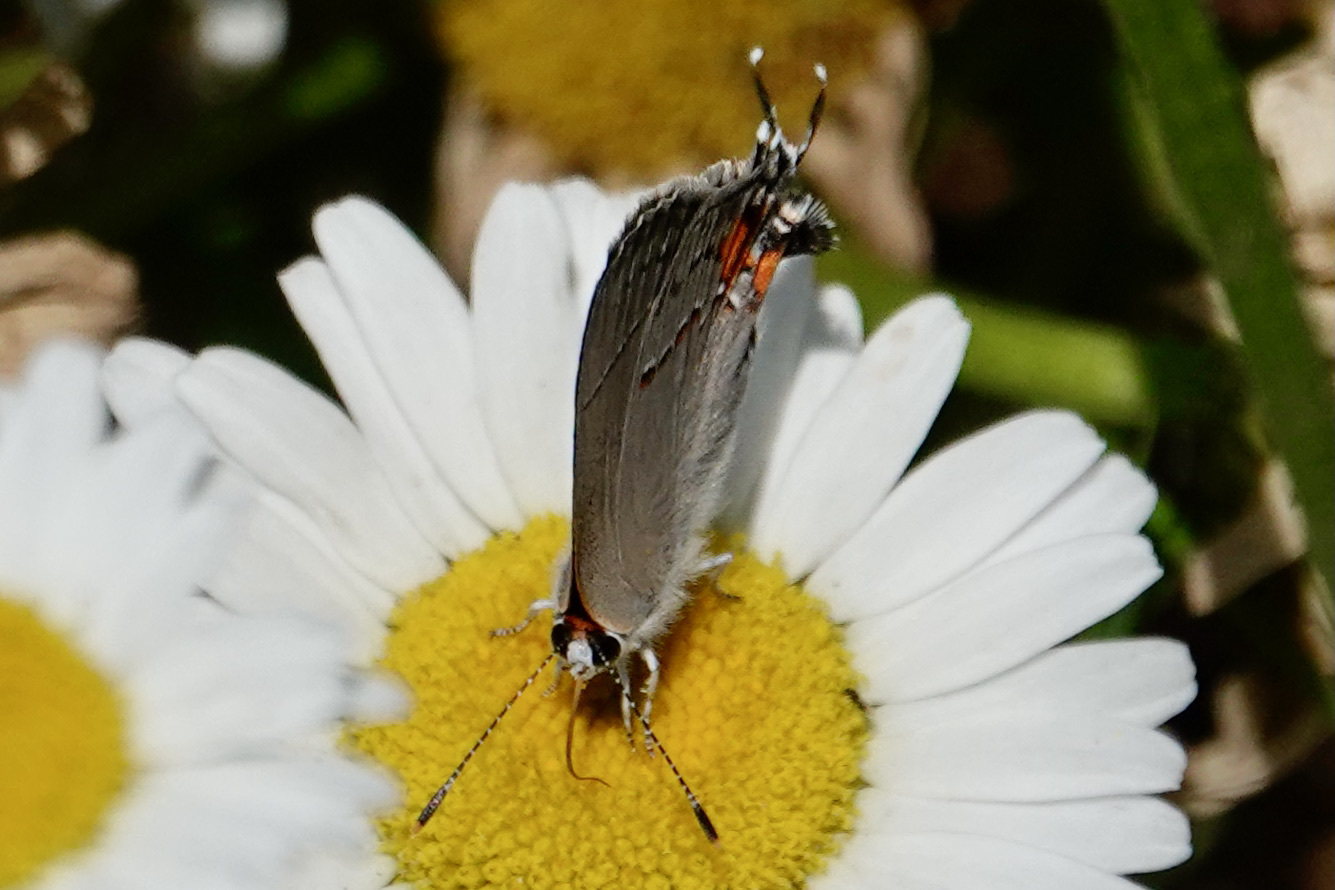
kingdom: Animalia
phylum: Arthropoda
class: Insecta
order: Lepidoptera
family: Lycaenidae
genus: Strymon
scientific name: Strymon melinus
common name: Gray hairstreak
